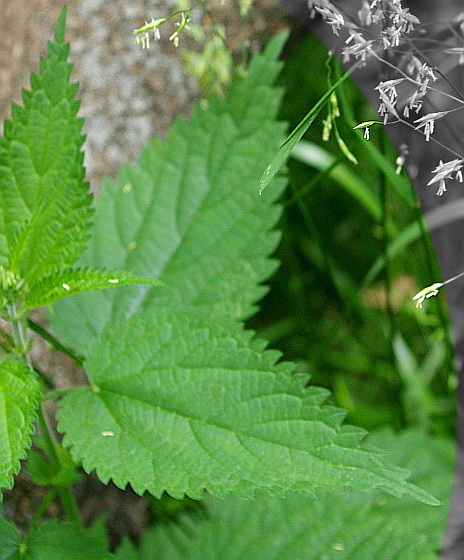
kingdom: Plantae
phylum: Tracheophyta
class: Magnoliopsida
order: Rosales
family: Urticaceae
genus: Urtica
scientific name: Urtica dioica
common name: Common nettle
